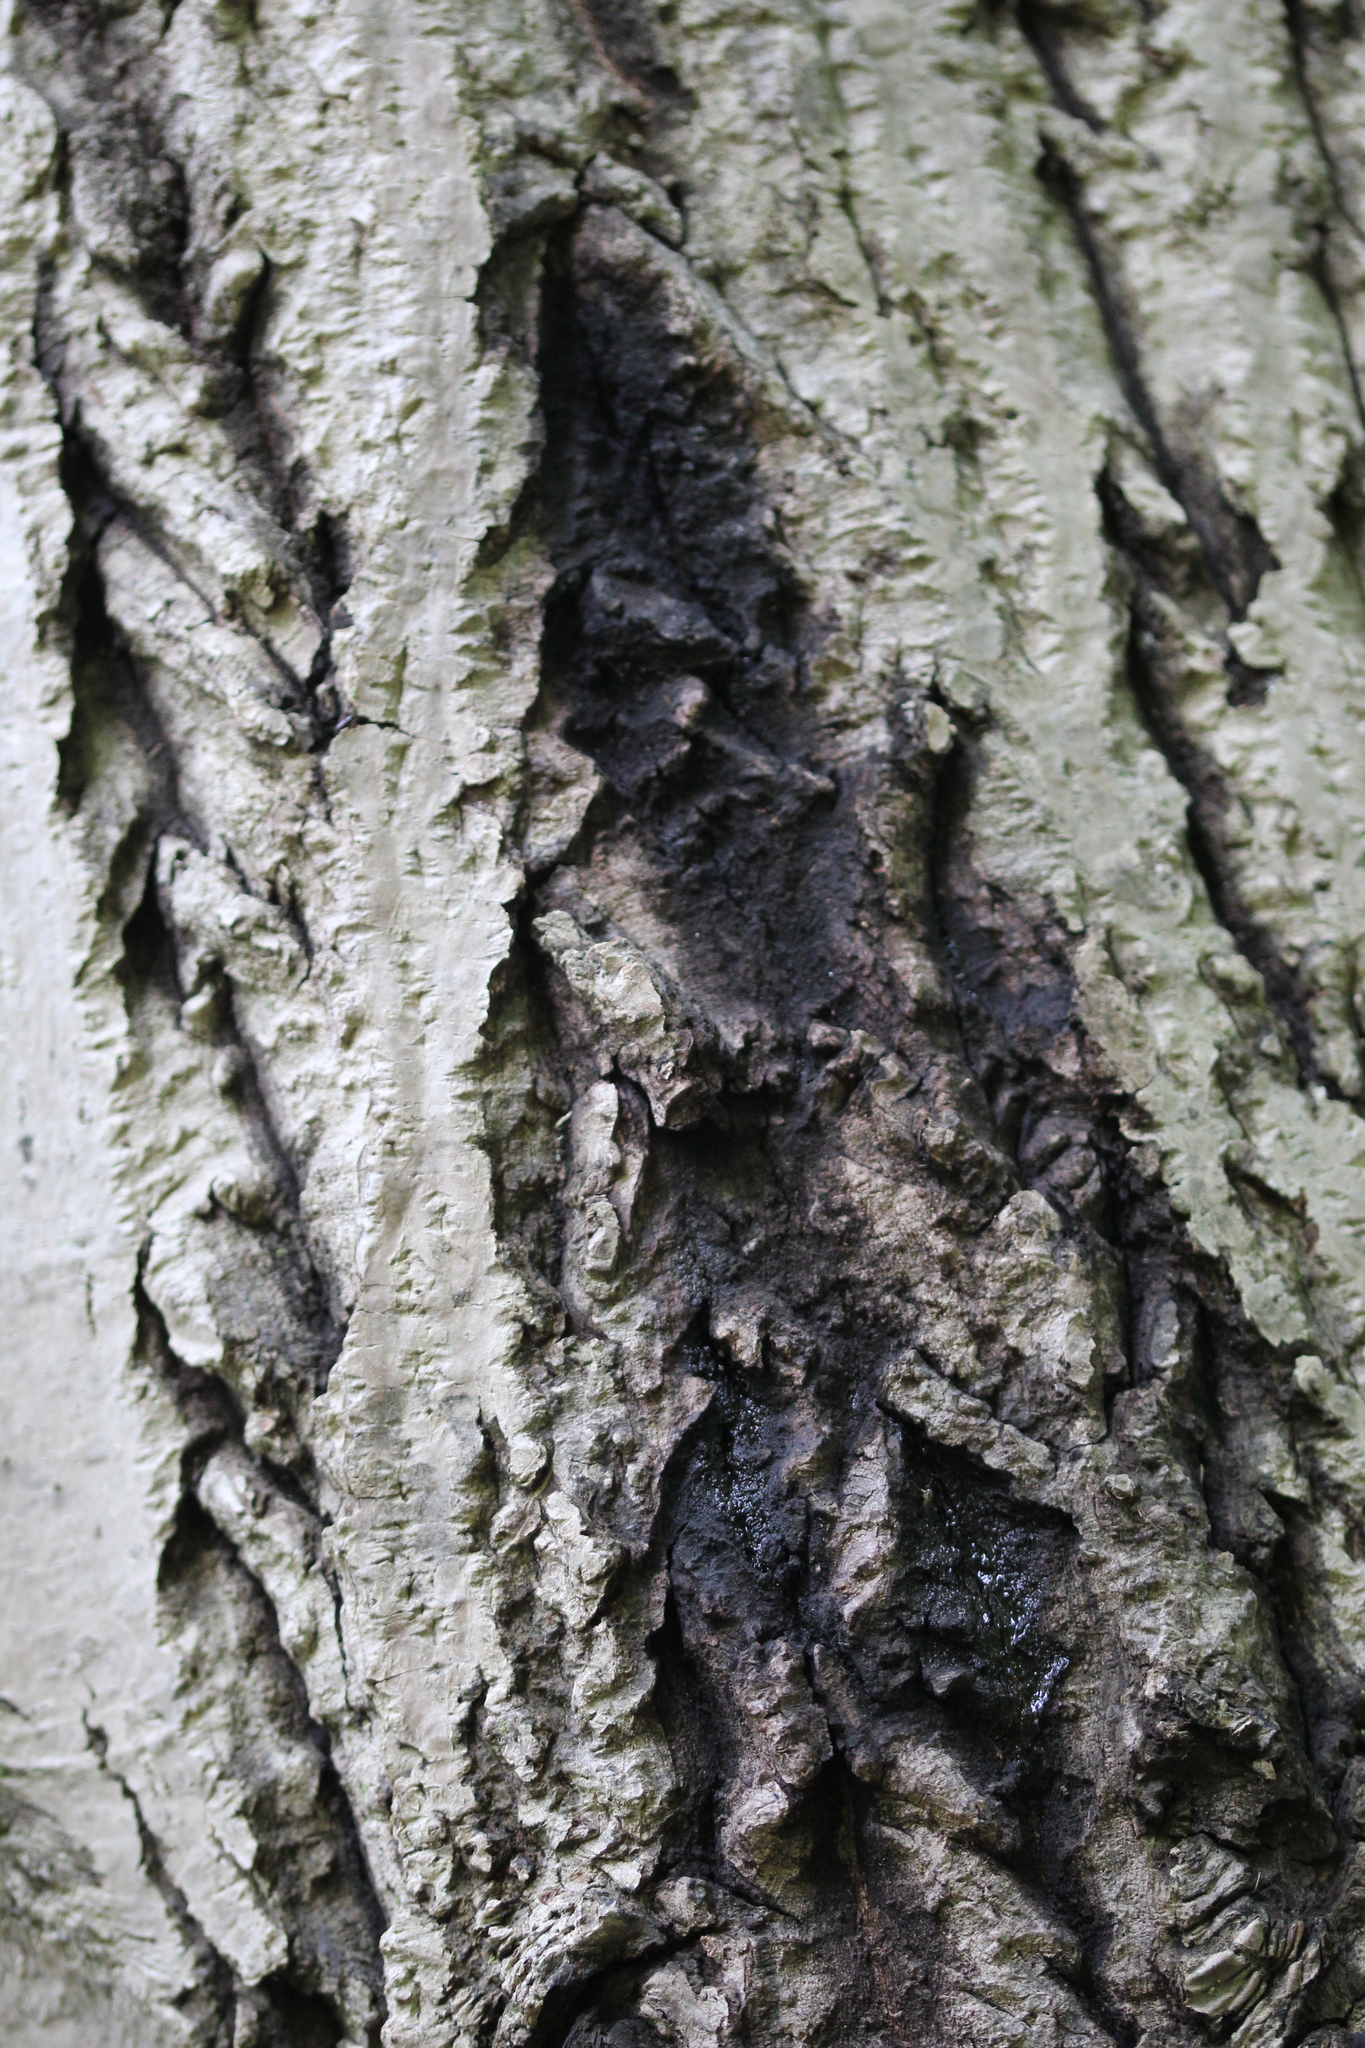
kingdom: Fungi
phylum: Ascomycota
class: Sordariomycetes
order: Diaporthales
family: Gnomoniaceae
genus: Ophiognomonia
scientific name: Ophiognomonia clavigignenti-juglandacearum
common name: Butternut canker fungus
